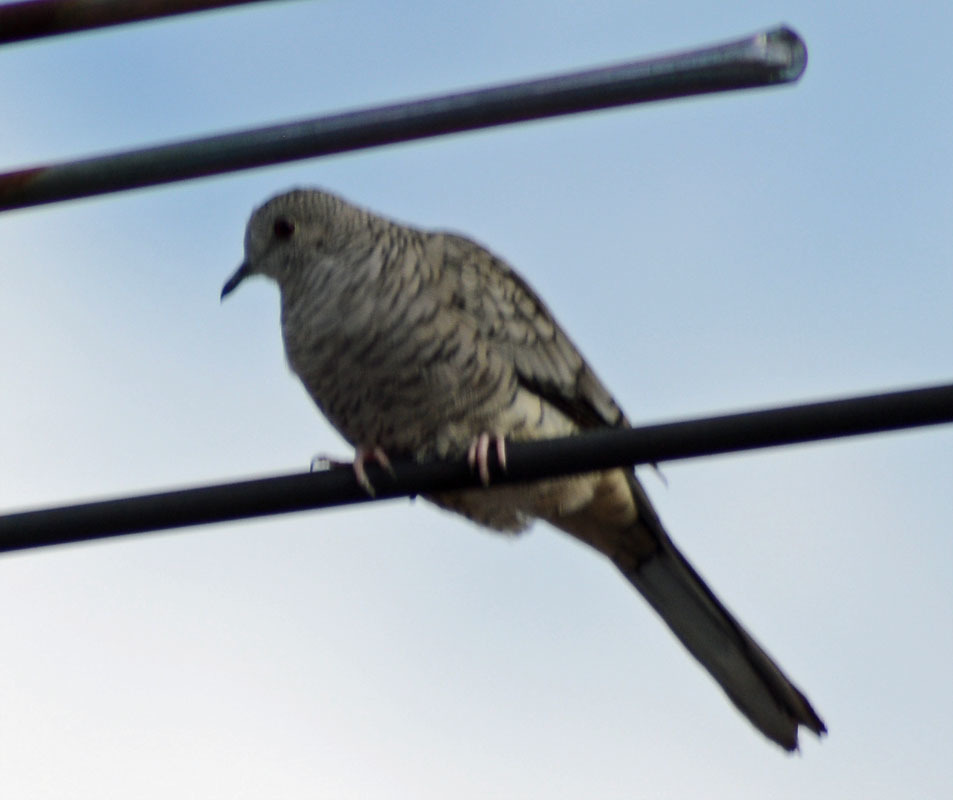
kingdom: Animalia
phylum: Chordata
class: Aves
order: Columbiformes
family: Columbidae
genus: Columbina
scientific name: Columbina inca
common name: Inca dove
